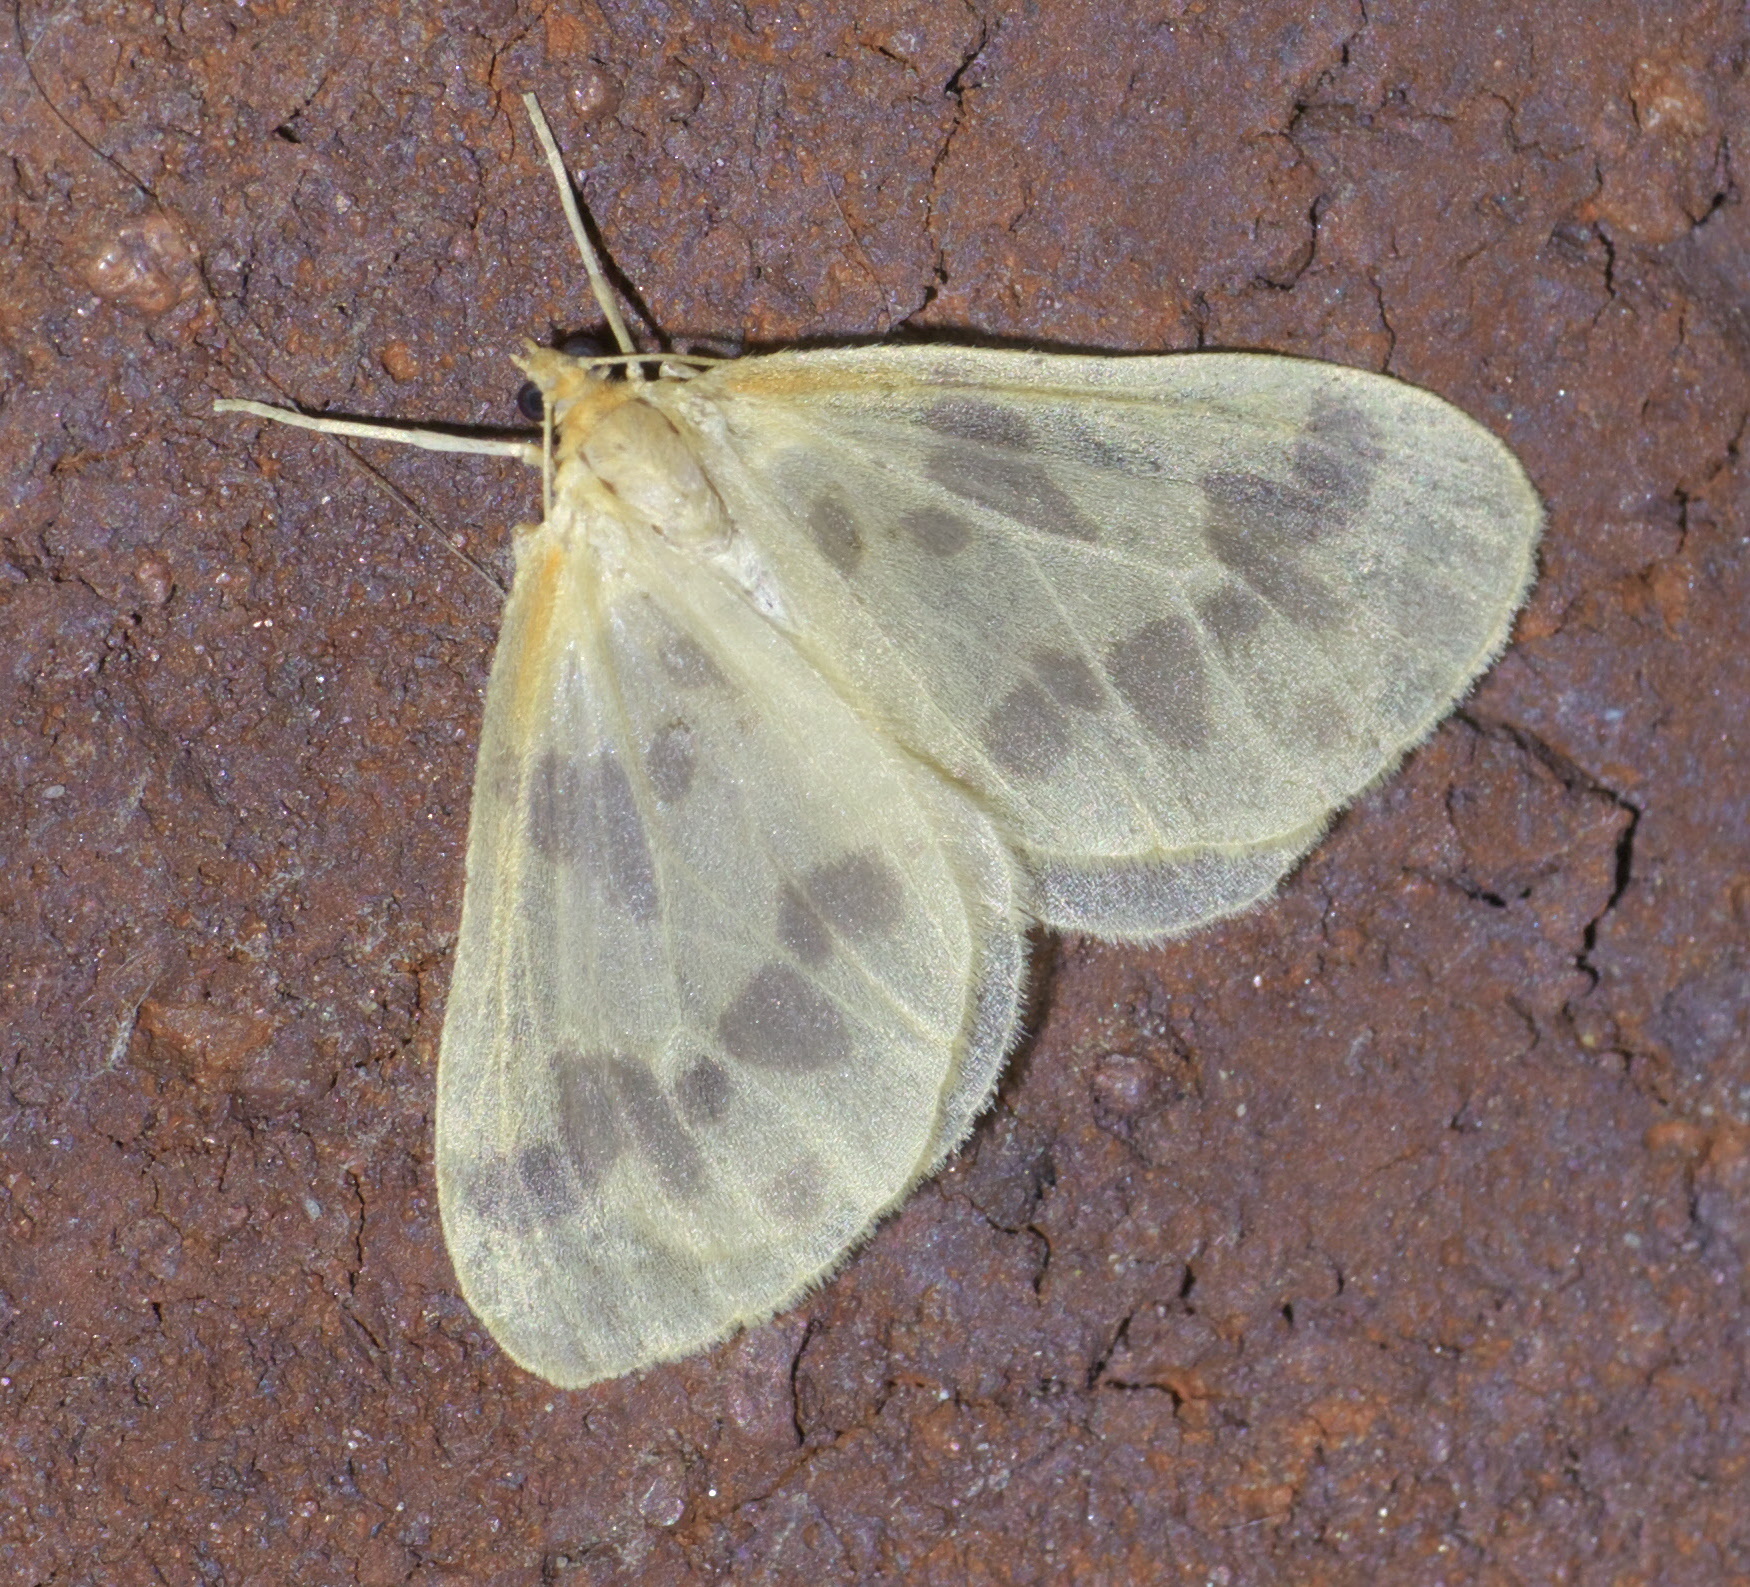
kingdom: Animalia
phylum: Arthropoda
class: Insecta
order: Lepidoptera
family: Geometridae
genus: Eubaphe
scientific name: Eubaphe mendica
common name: Beggar
